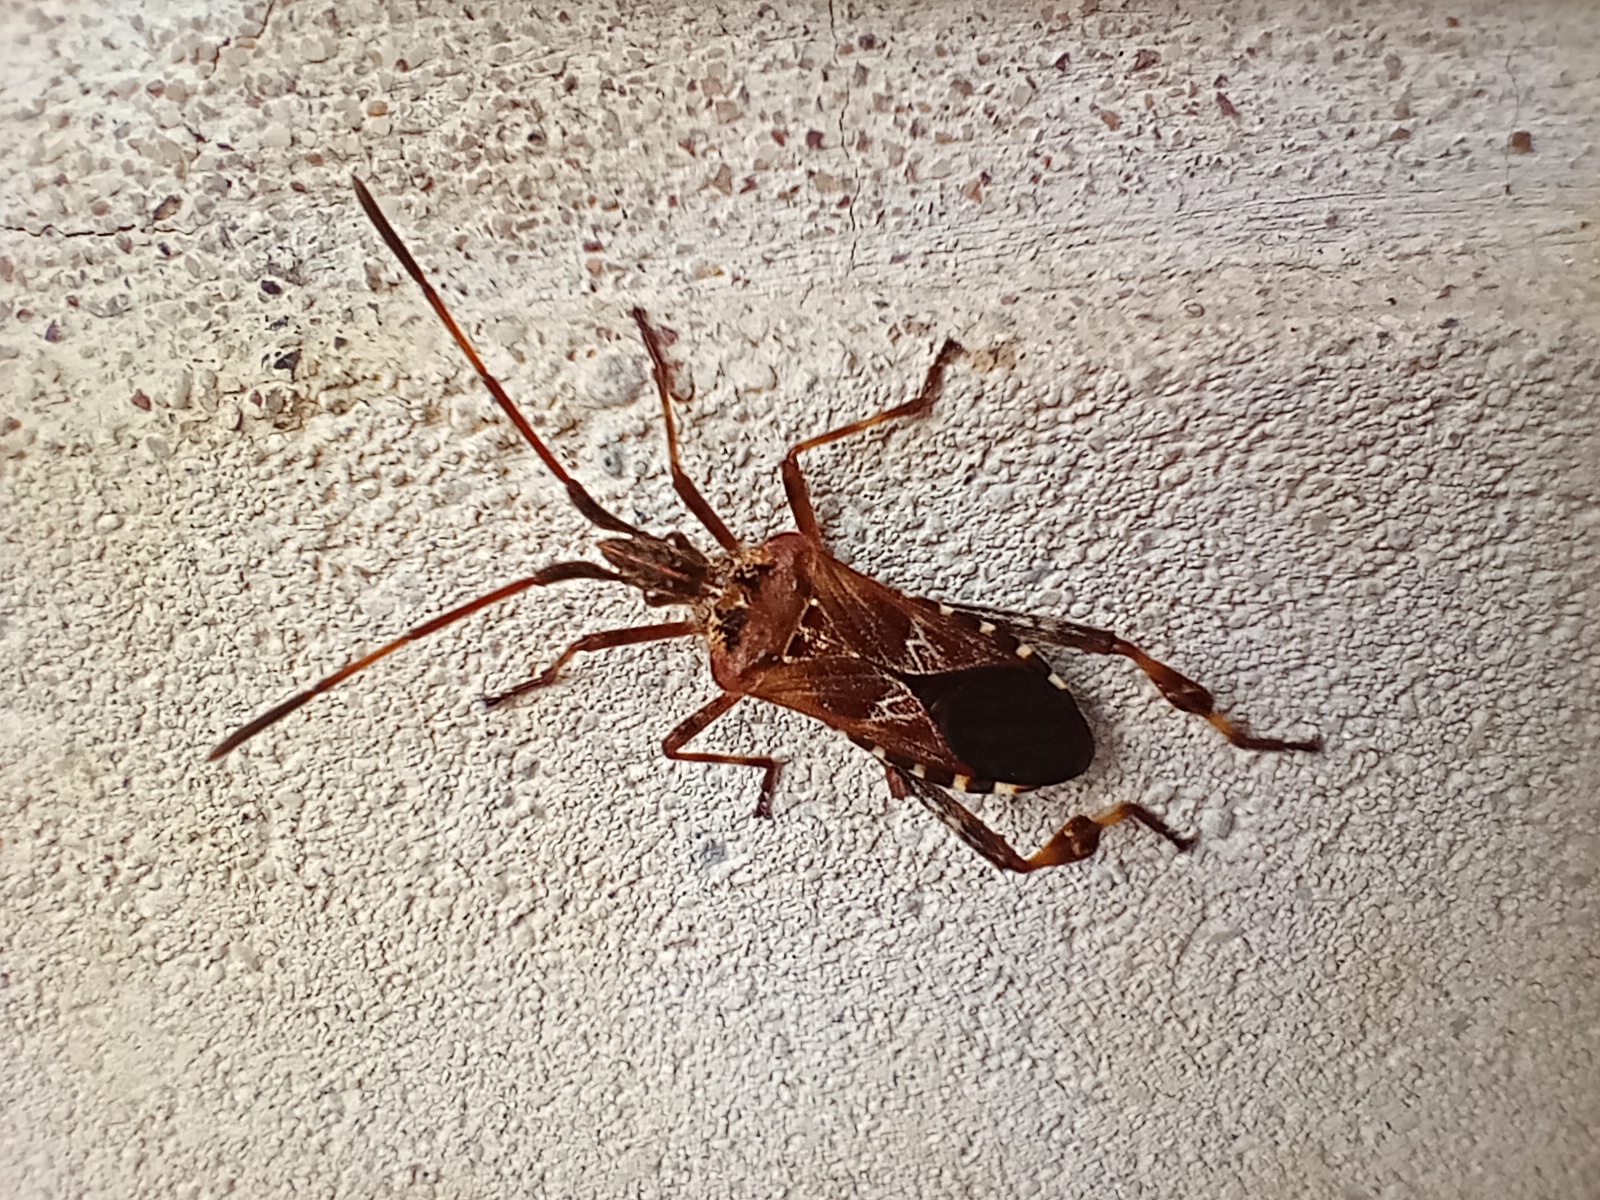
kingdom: Animalia
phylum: Arthropoda
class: Insecta
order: Hemiptera
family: Coreidae
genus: Leptoglossus
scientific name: Leptoglossus occidentalis
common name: Western conifer-seed bug
